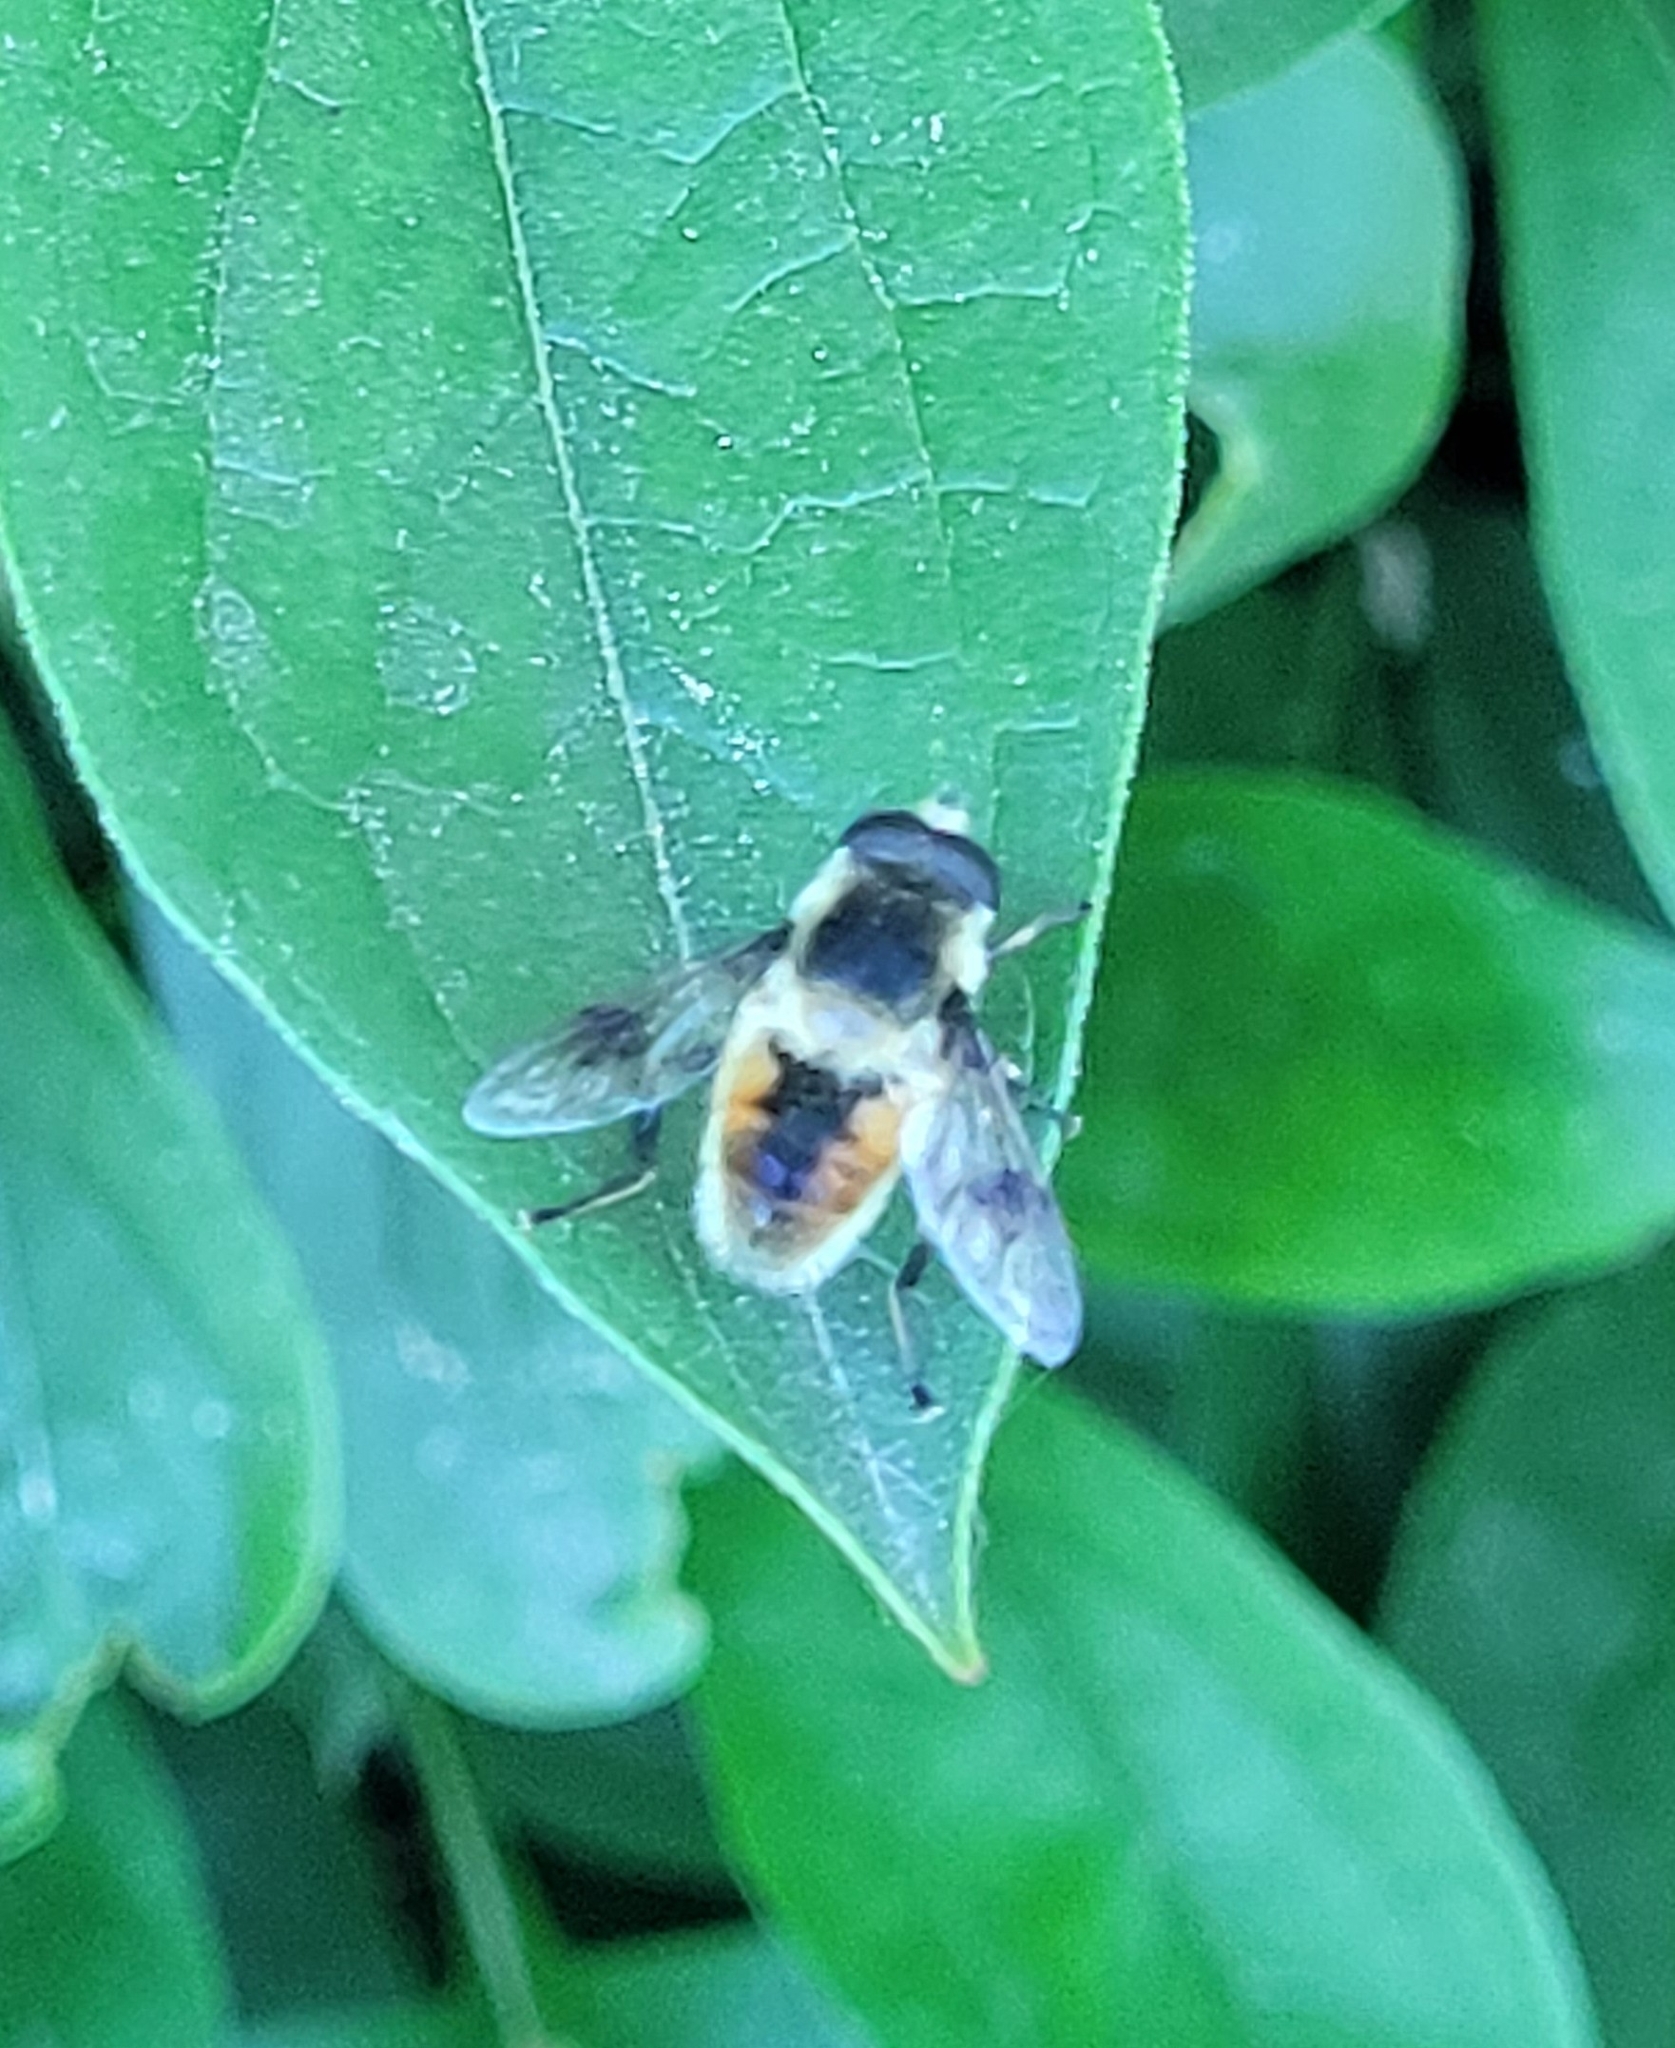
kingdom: Animalia
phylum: Arthropoda
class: Insecta
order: Diptera
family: Syrphidae
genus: Eristalis
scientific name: Eristalis anthophorina
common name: Orange-spotted drone fly
